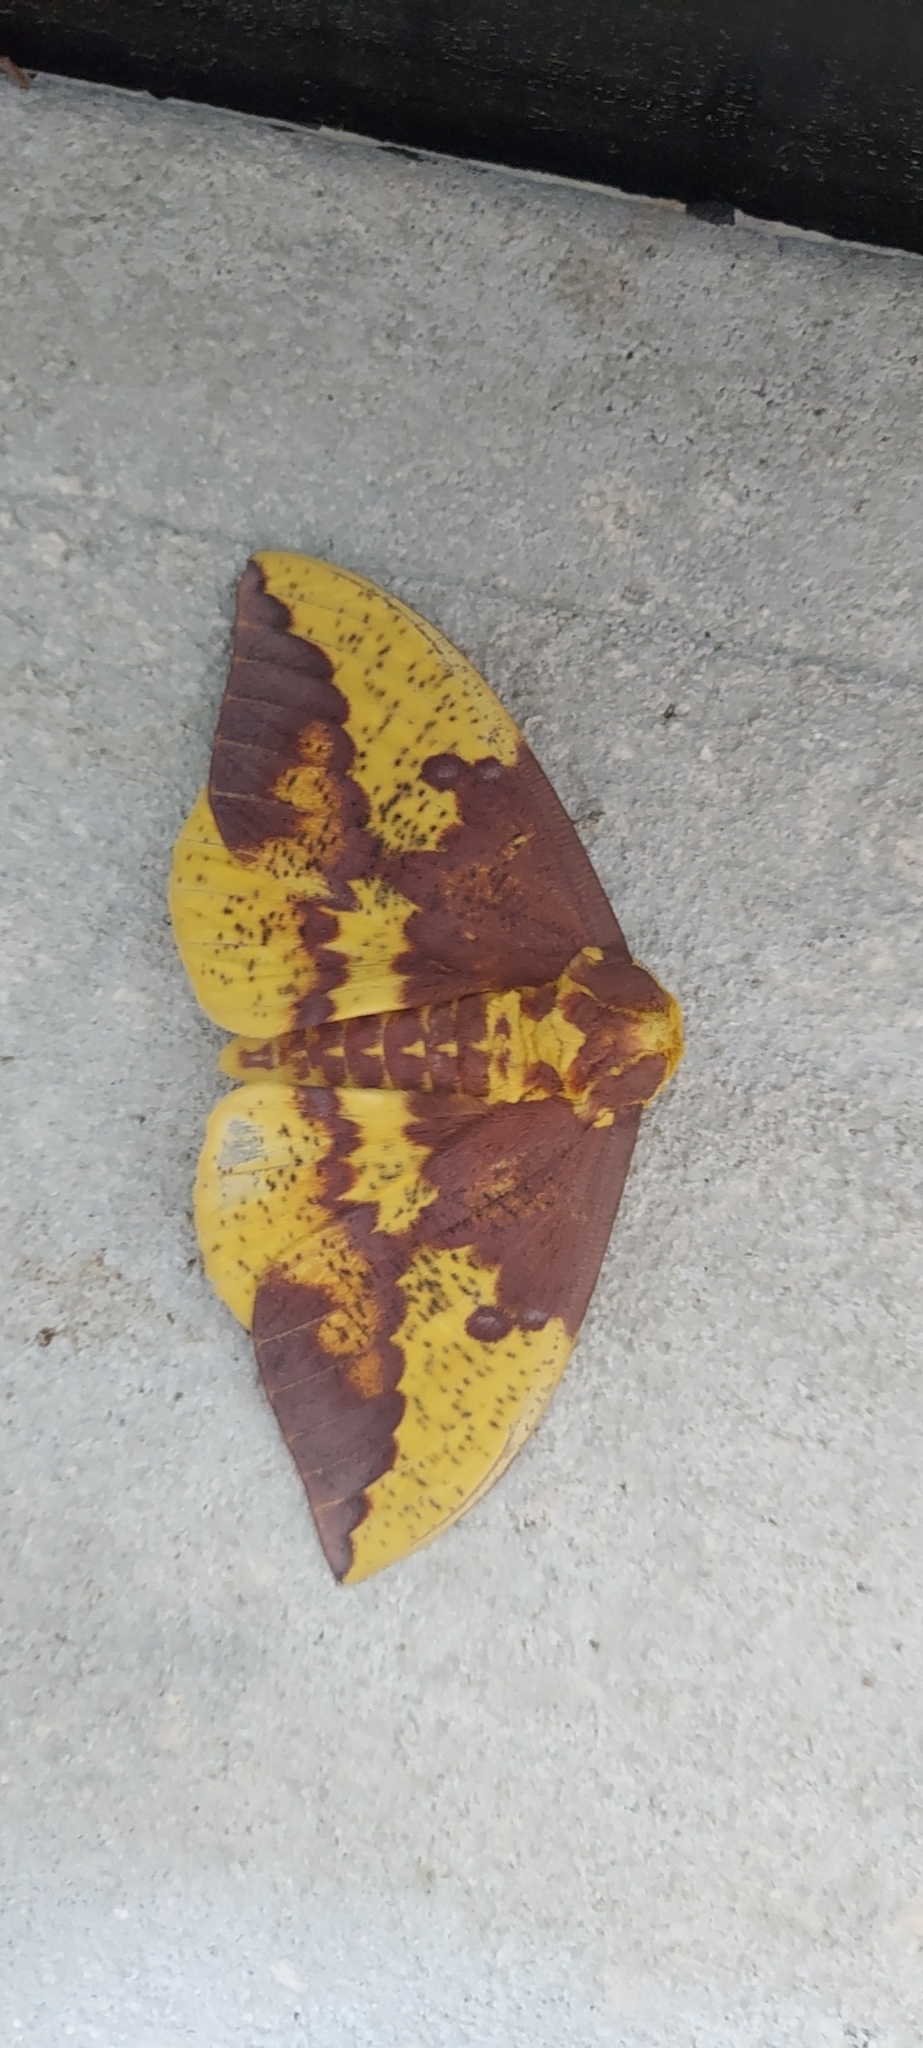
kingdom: Animalia
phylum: Arthropoda
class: Insecta
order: Lepidoptera
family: Saturniidae
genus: Eacles
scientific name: Eacles imperialis
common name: Imperial moth
